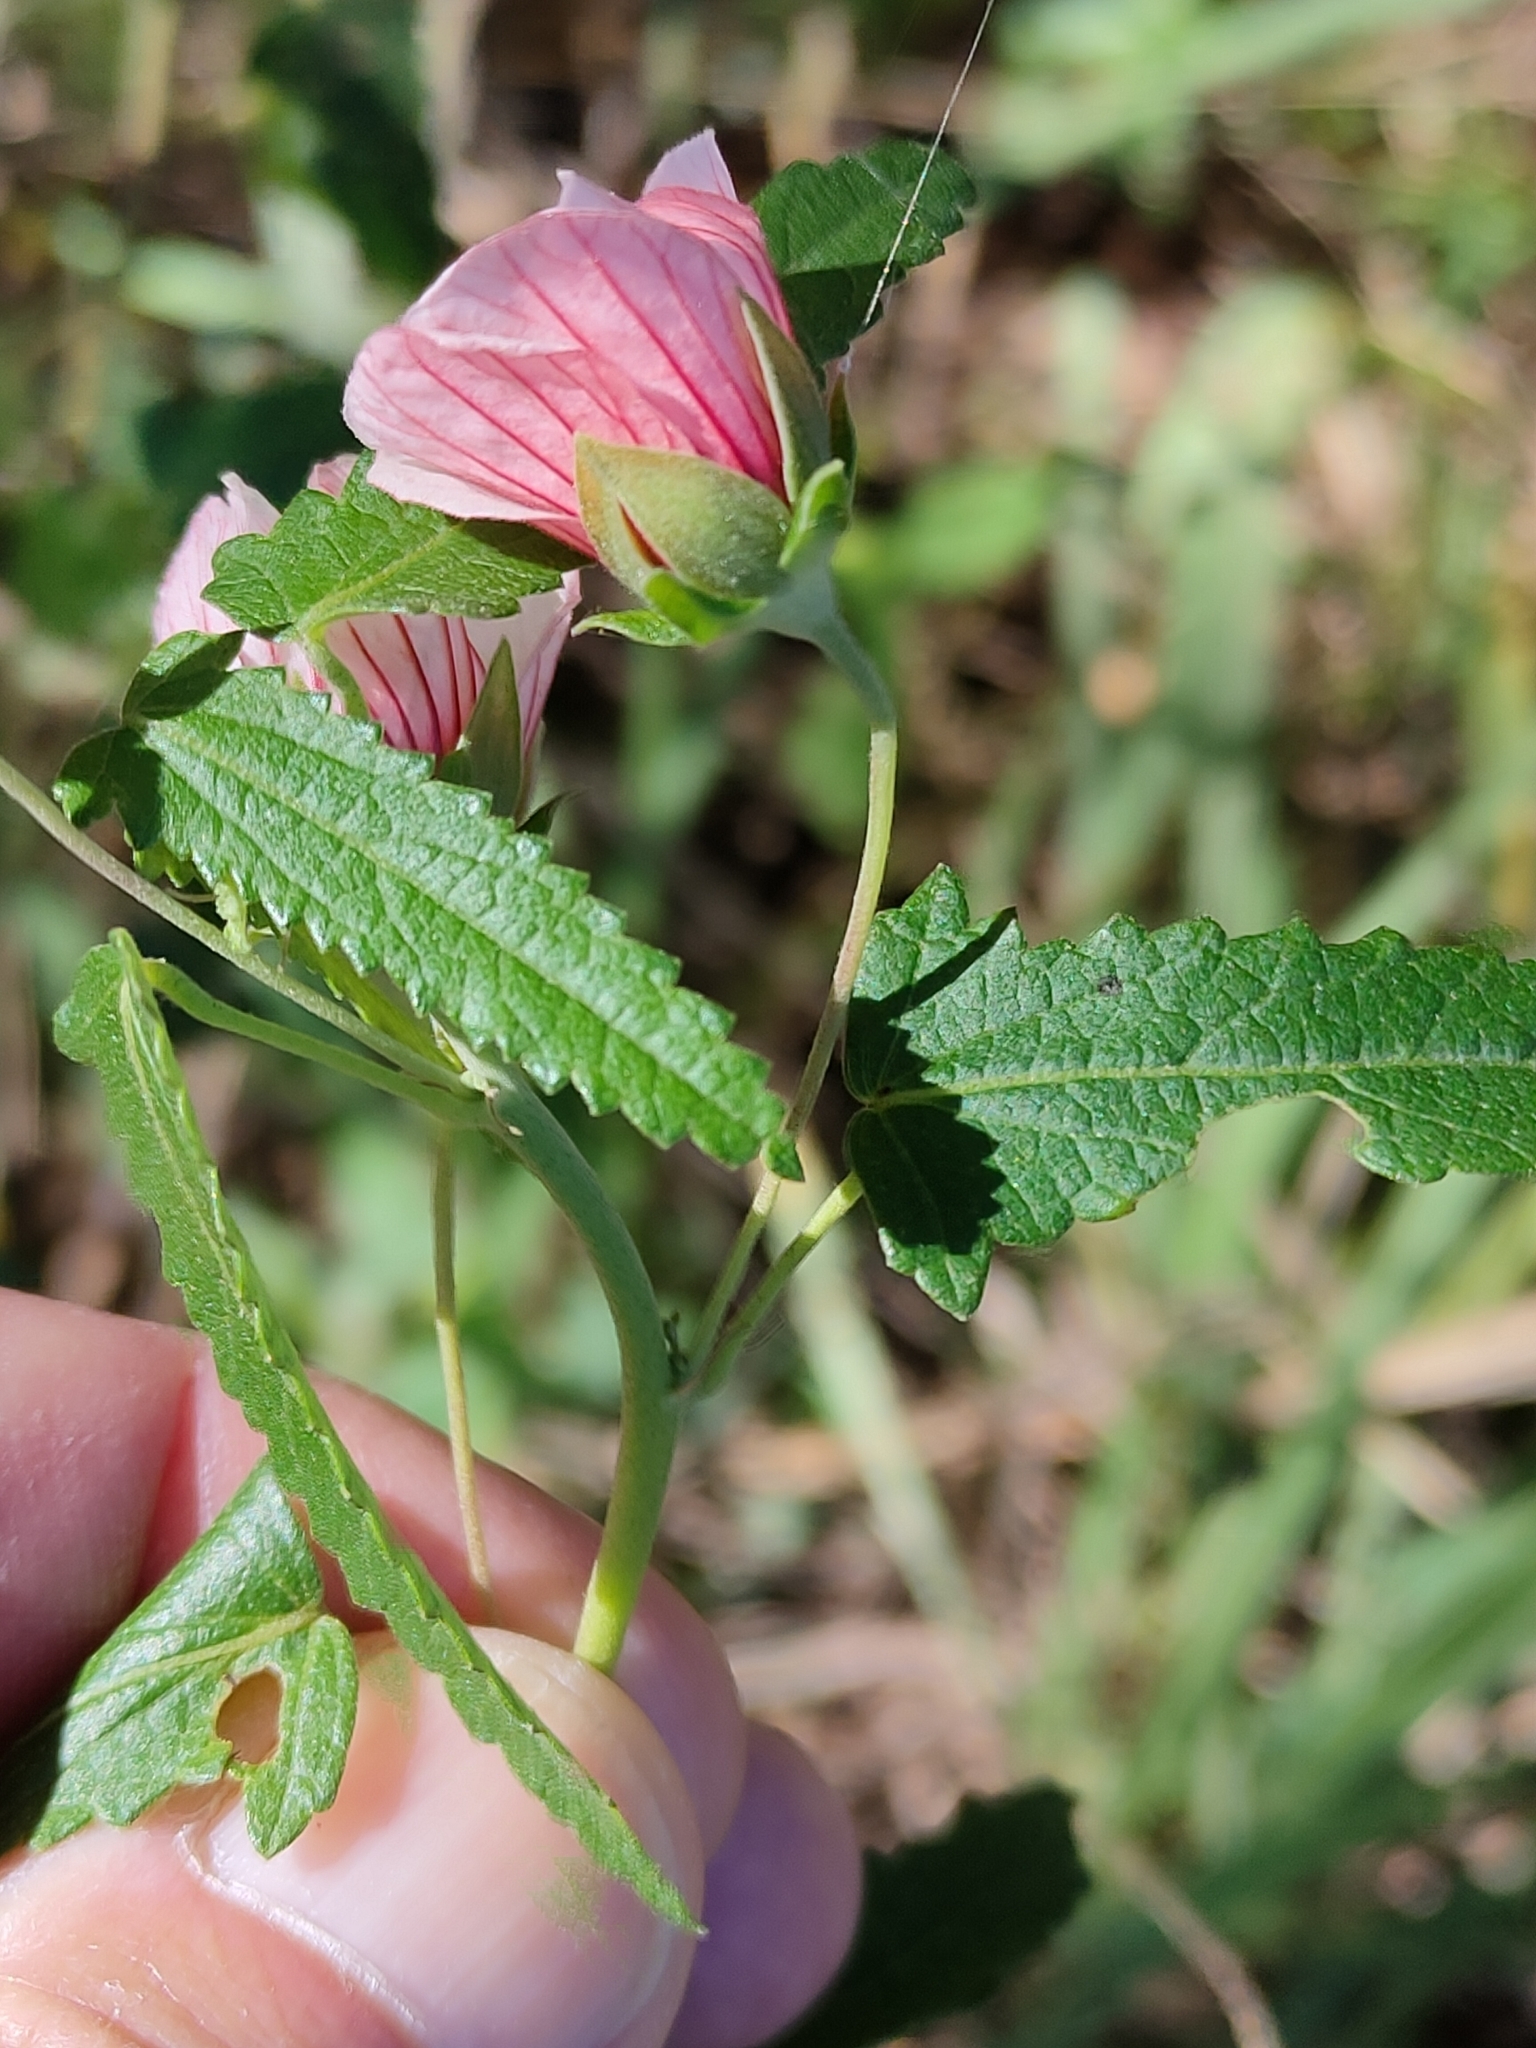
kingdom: Plantae
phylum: Tracheophyta
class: Magnoliopsida
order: Malvales
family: Malvaceae
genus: Pavonia
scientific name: Pavonia hastata
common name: Spearleaf swampmallow
